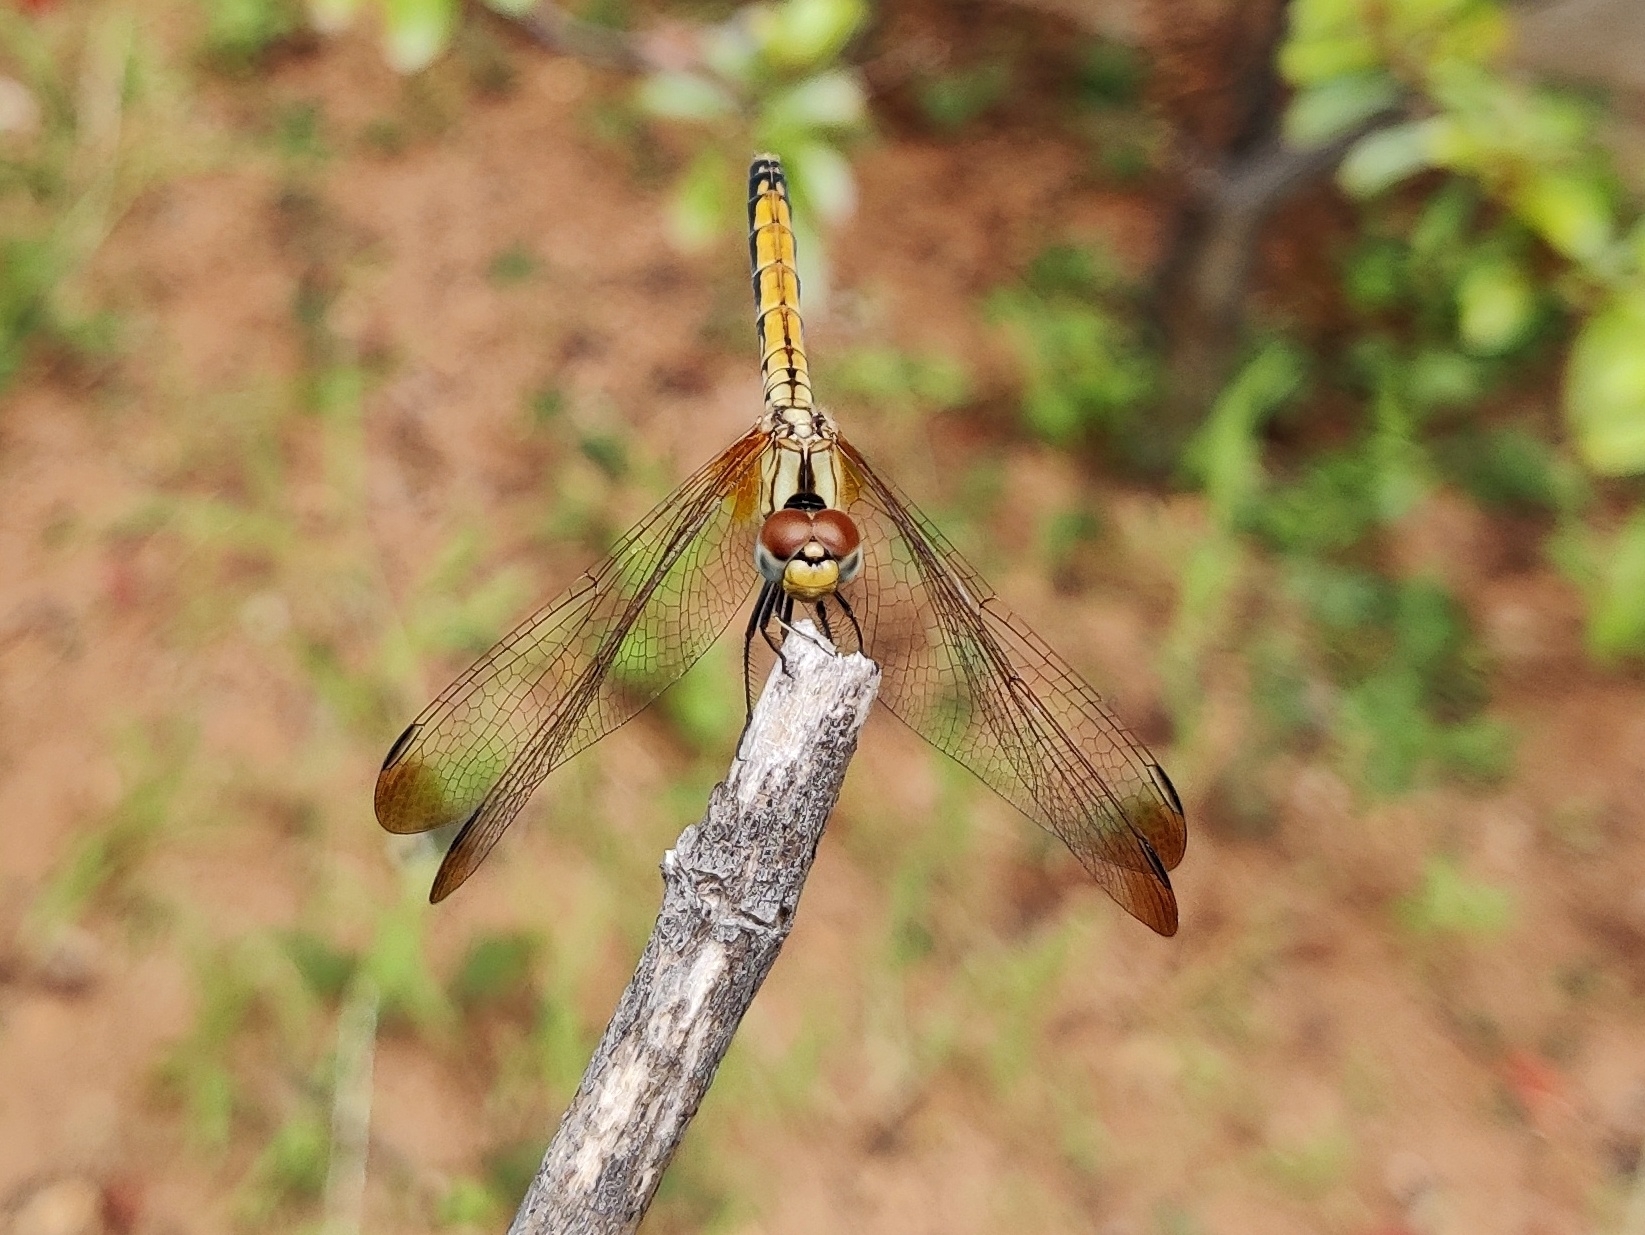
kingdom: Animalia
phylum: Arthropoda
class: Insecta
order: Odonata
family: Libellulidae
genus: Trithemis
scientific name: Trithemis aurora
